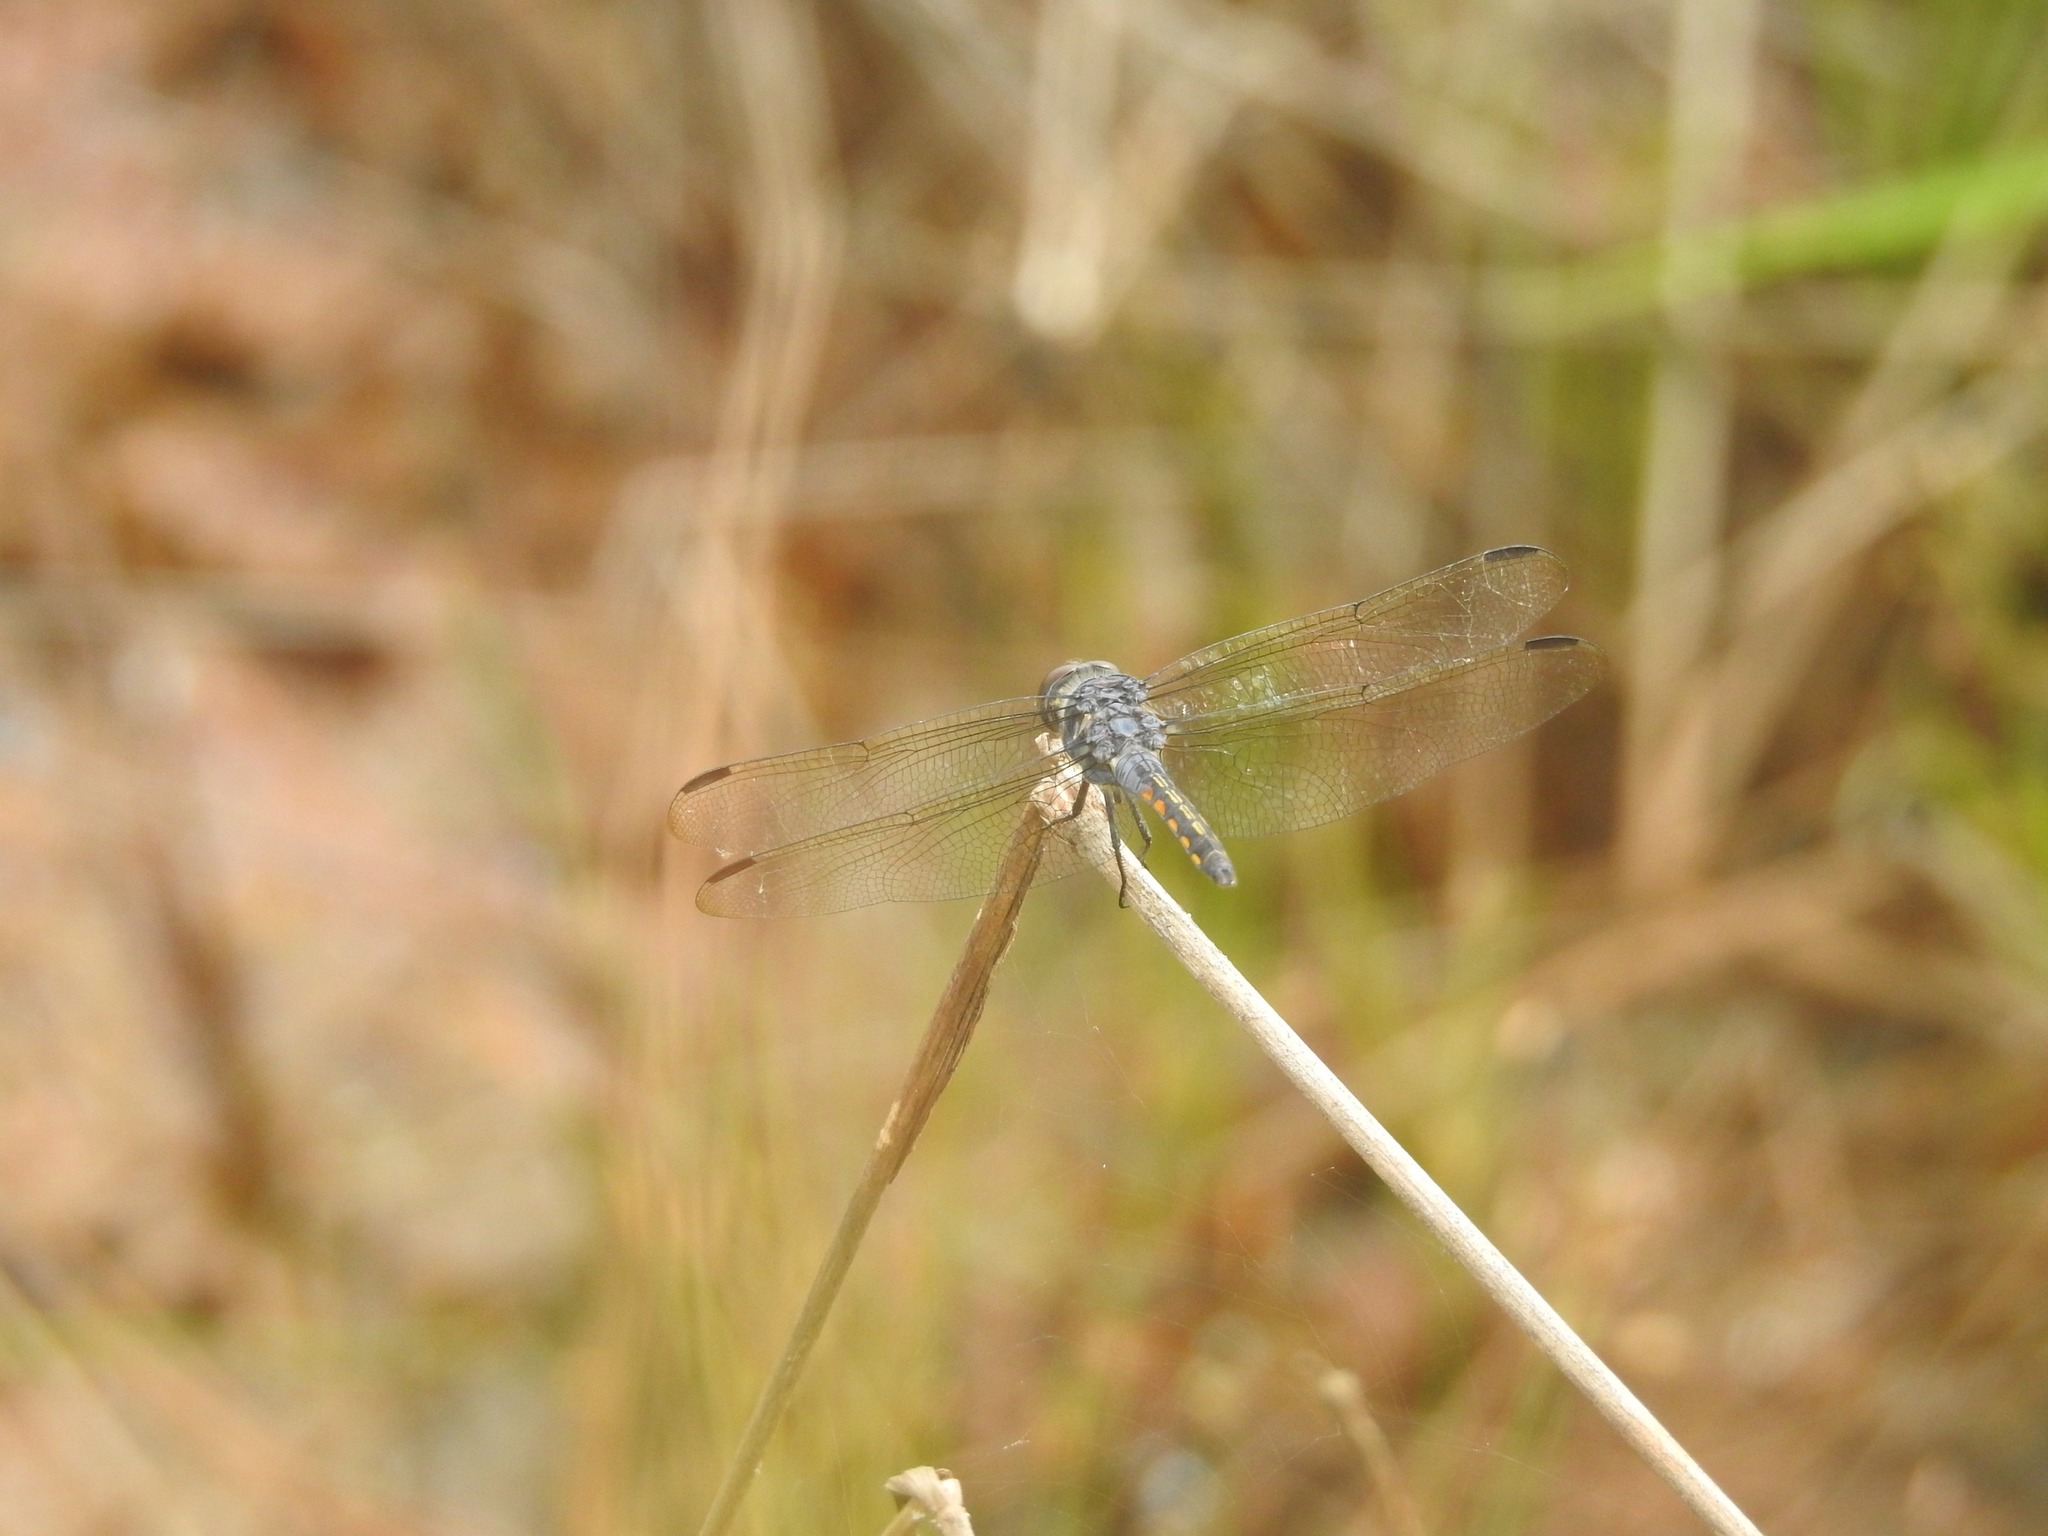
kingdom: Animalia
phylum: Arthropoda
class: Insecta
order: Odonata
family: Libellulidae
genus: Potamarcha
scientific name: Potamarcha congener
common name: Blue chaser
